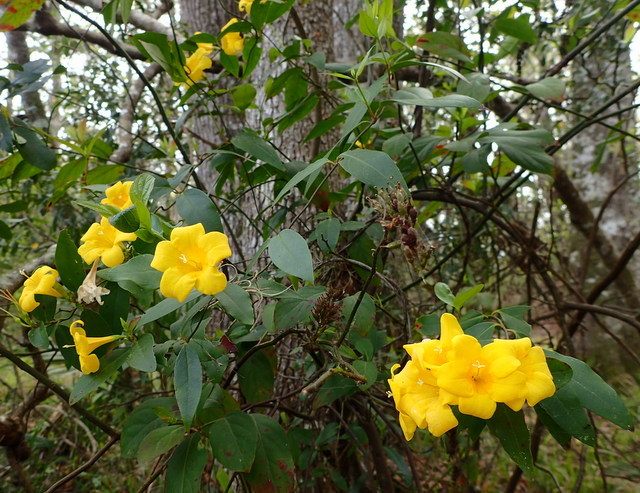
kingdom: Plantae
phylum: Tracheophyta
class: Magnoliopsida
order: Gentianales
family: Gelsemiaceae
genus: Gelsemium
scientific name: Gelsemium sempervirens
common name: Carolina-jasmine
